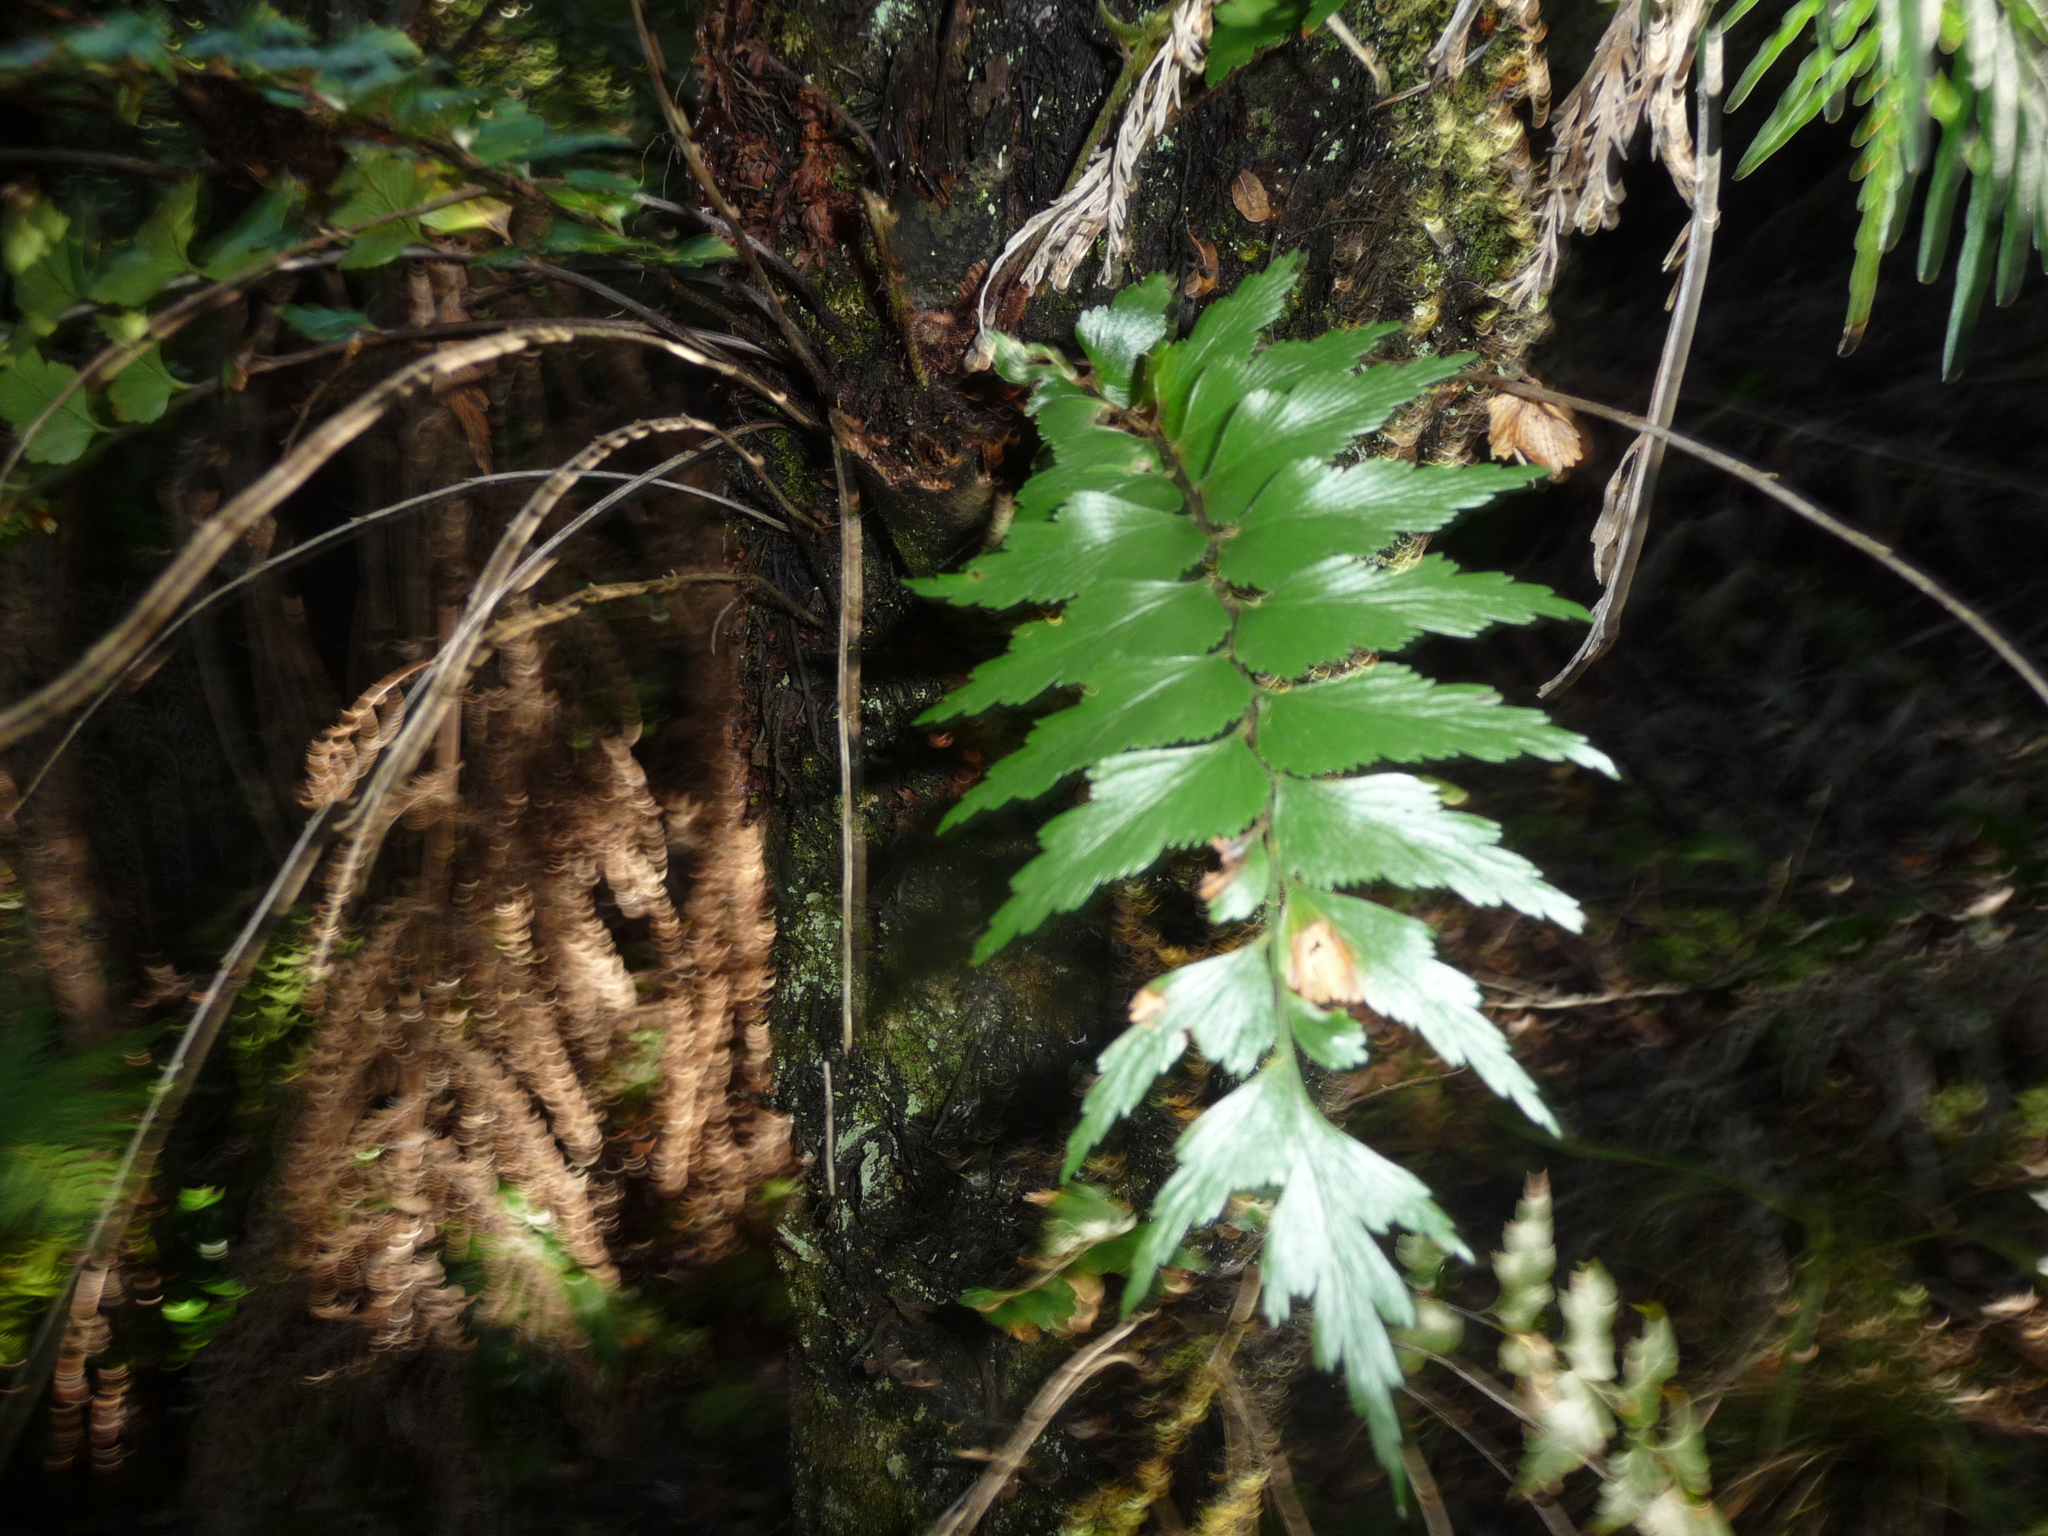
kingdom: Plantae
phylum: Tracheophyta
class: Polypodiopsida
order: Polypodiales
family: Aspleniaceae
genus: Asplenium
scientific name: Asplenium polyodon
